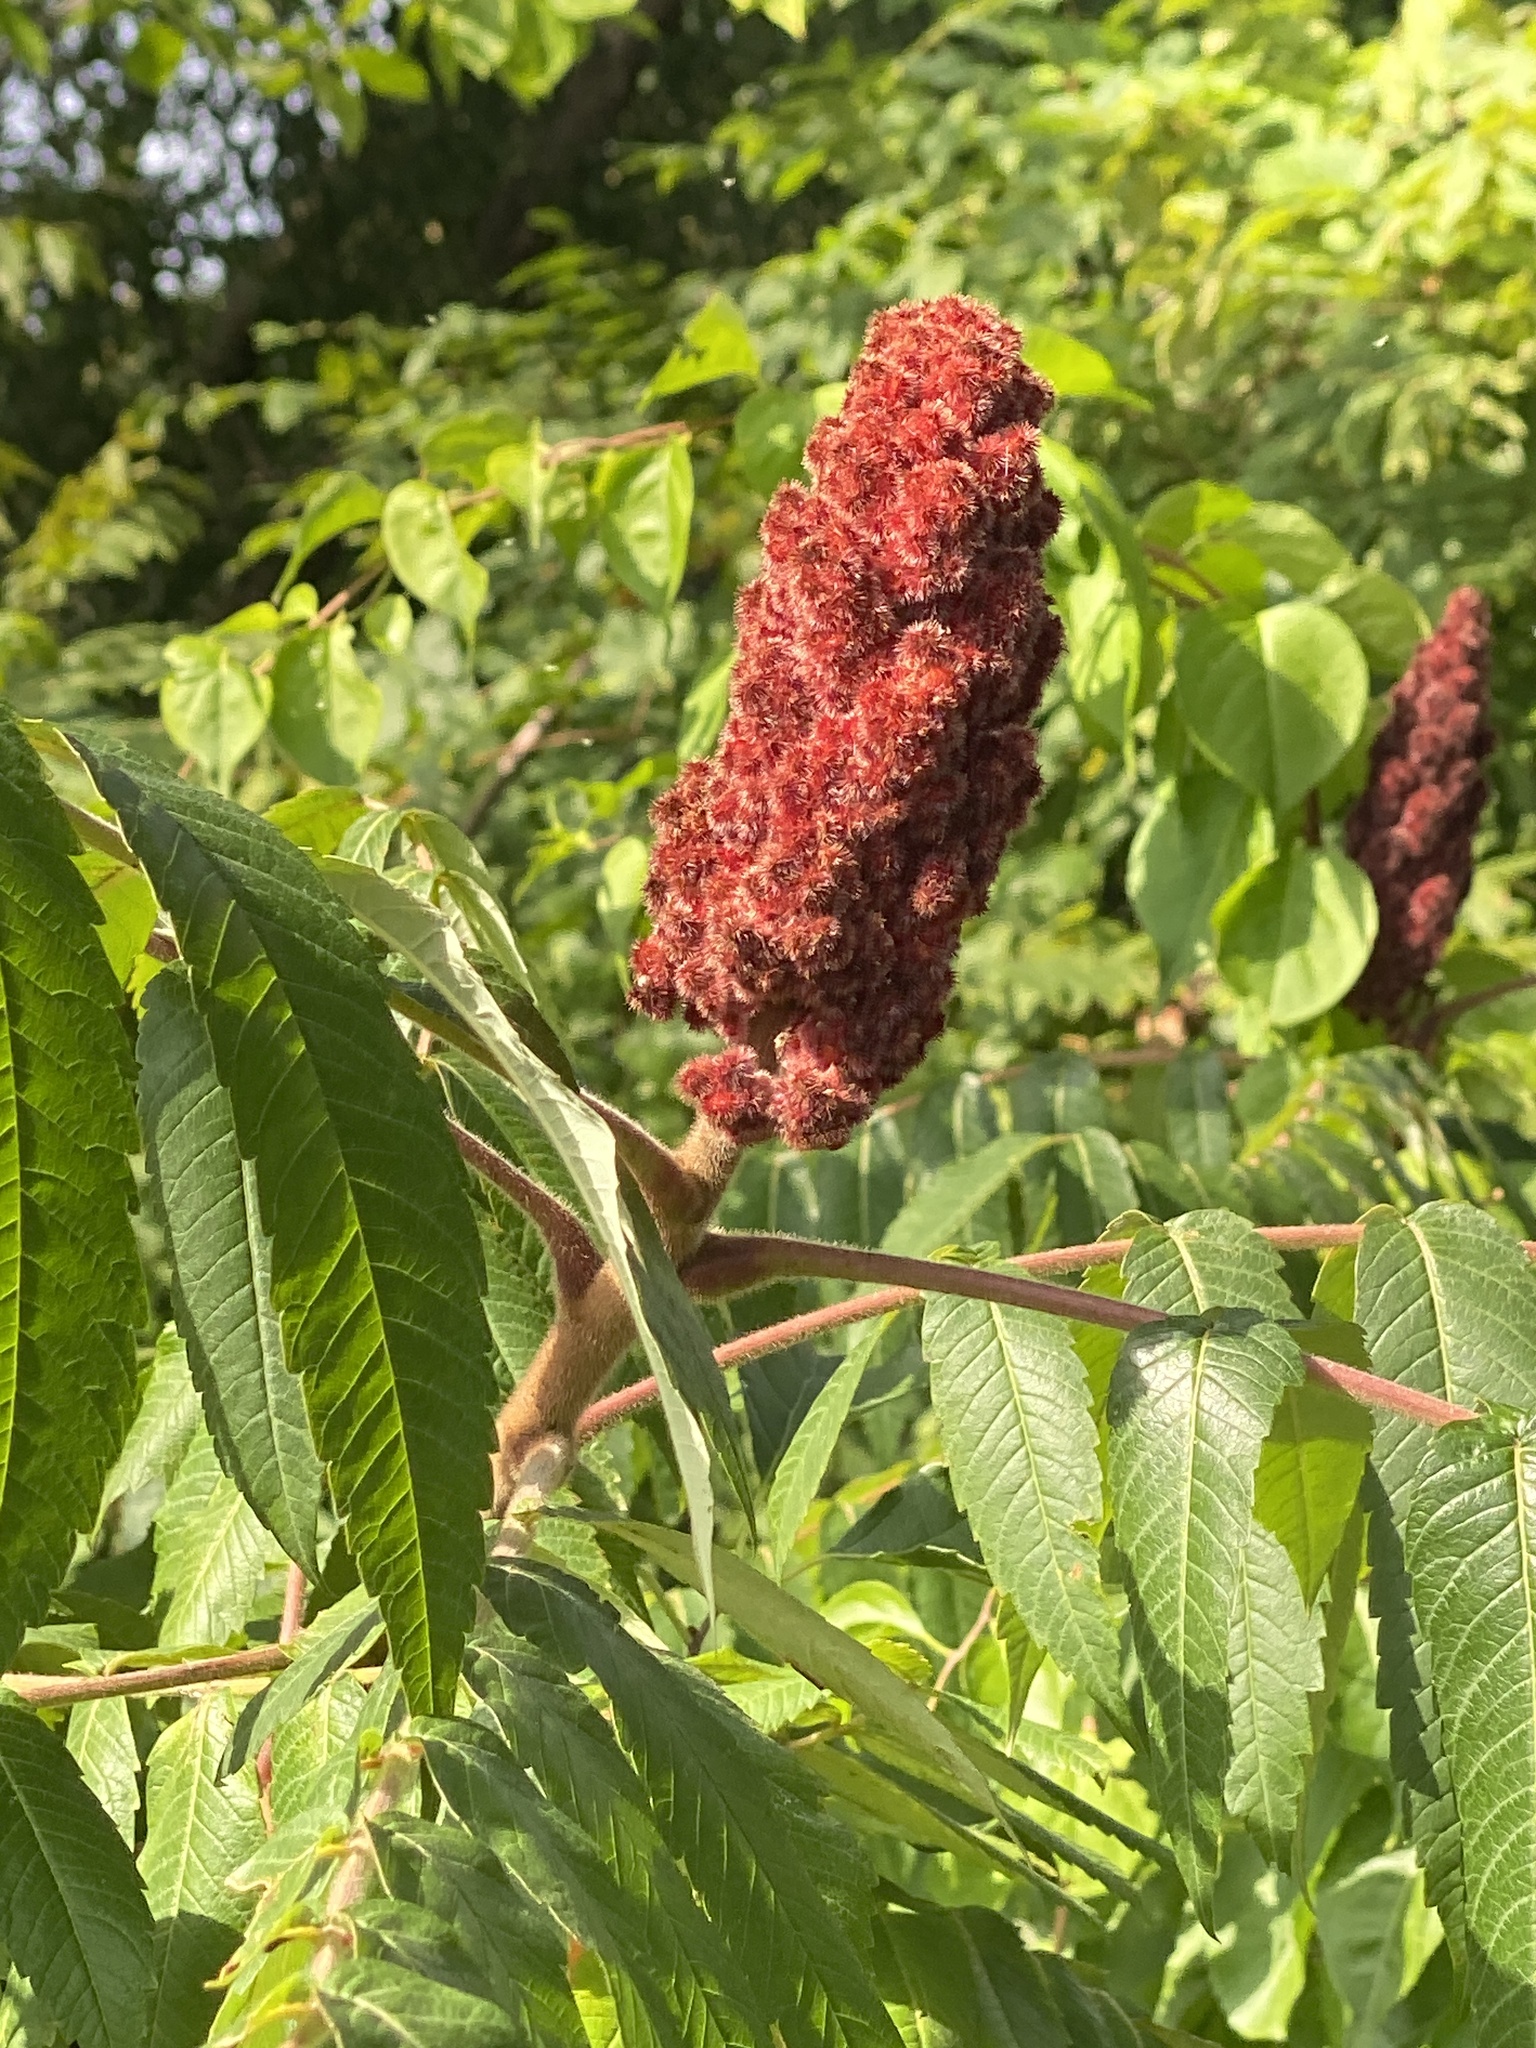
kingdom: Plantae
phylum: Tracheophyta
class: Magnoliopsida
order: Sapindales
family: Anacardiaceae
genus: Rhus
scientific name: Rhus typhina
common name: Staghorn sumac
